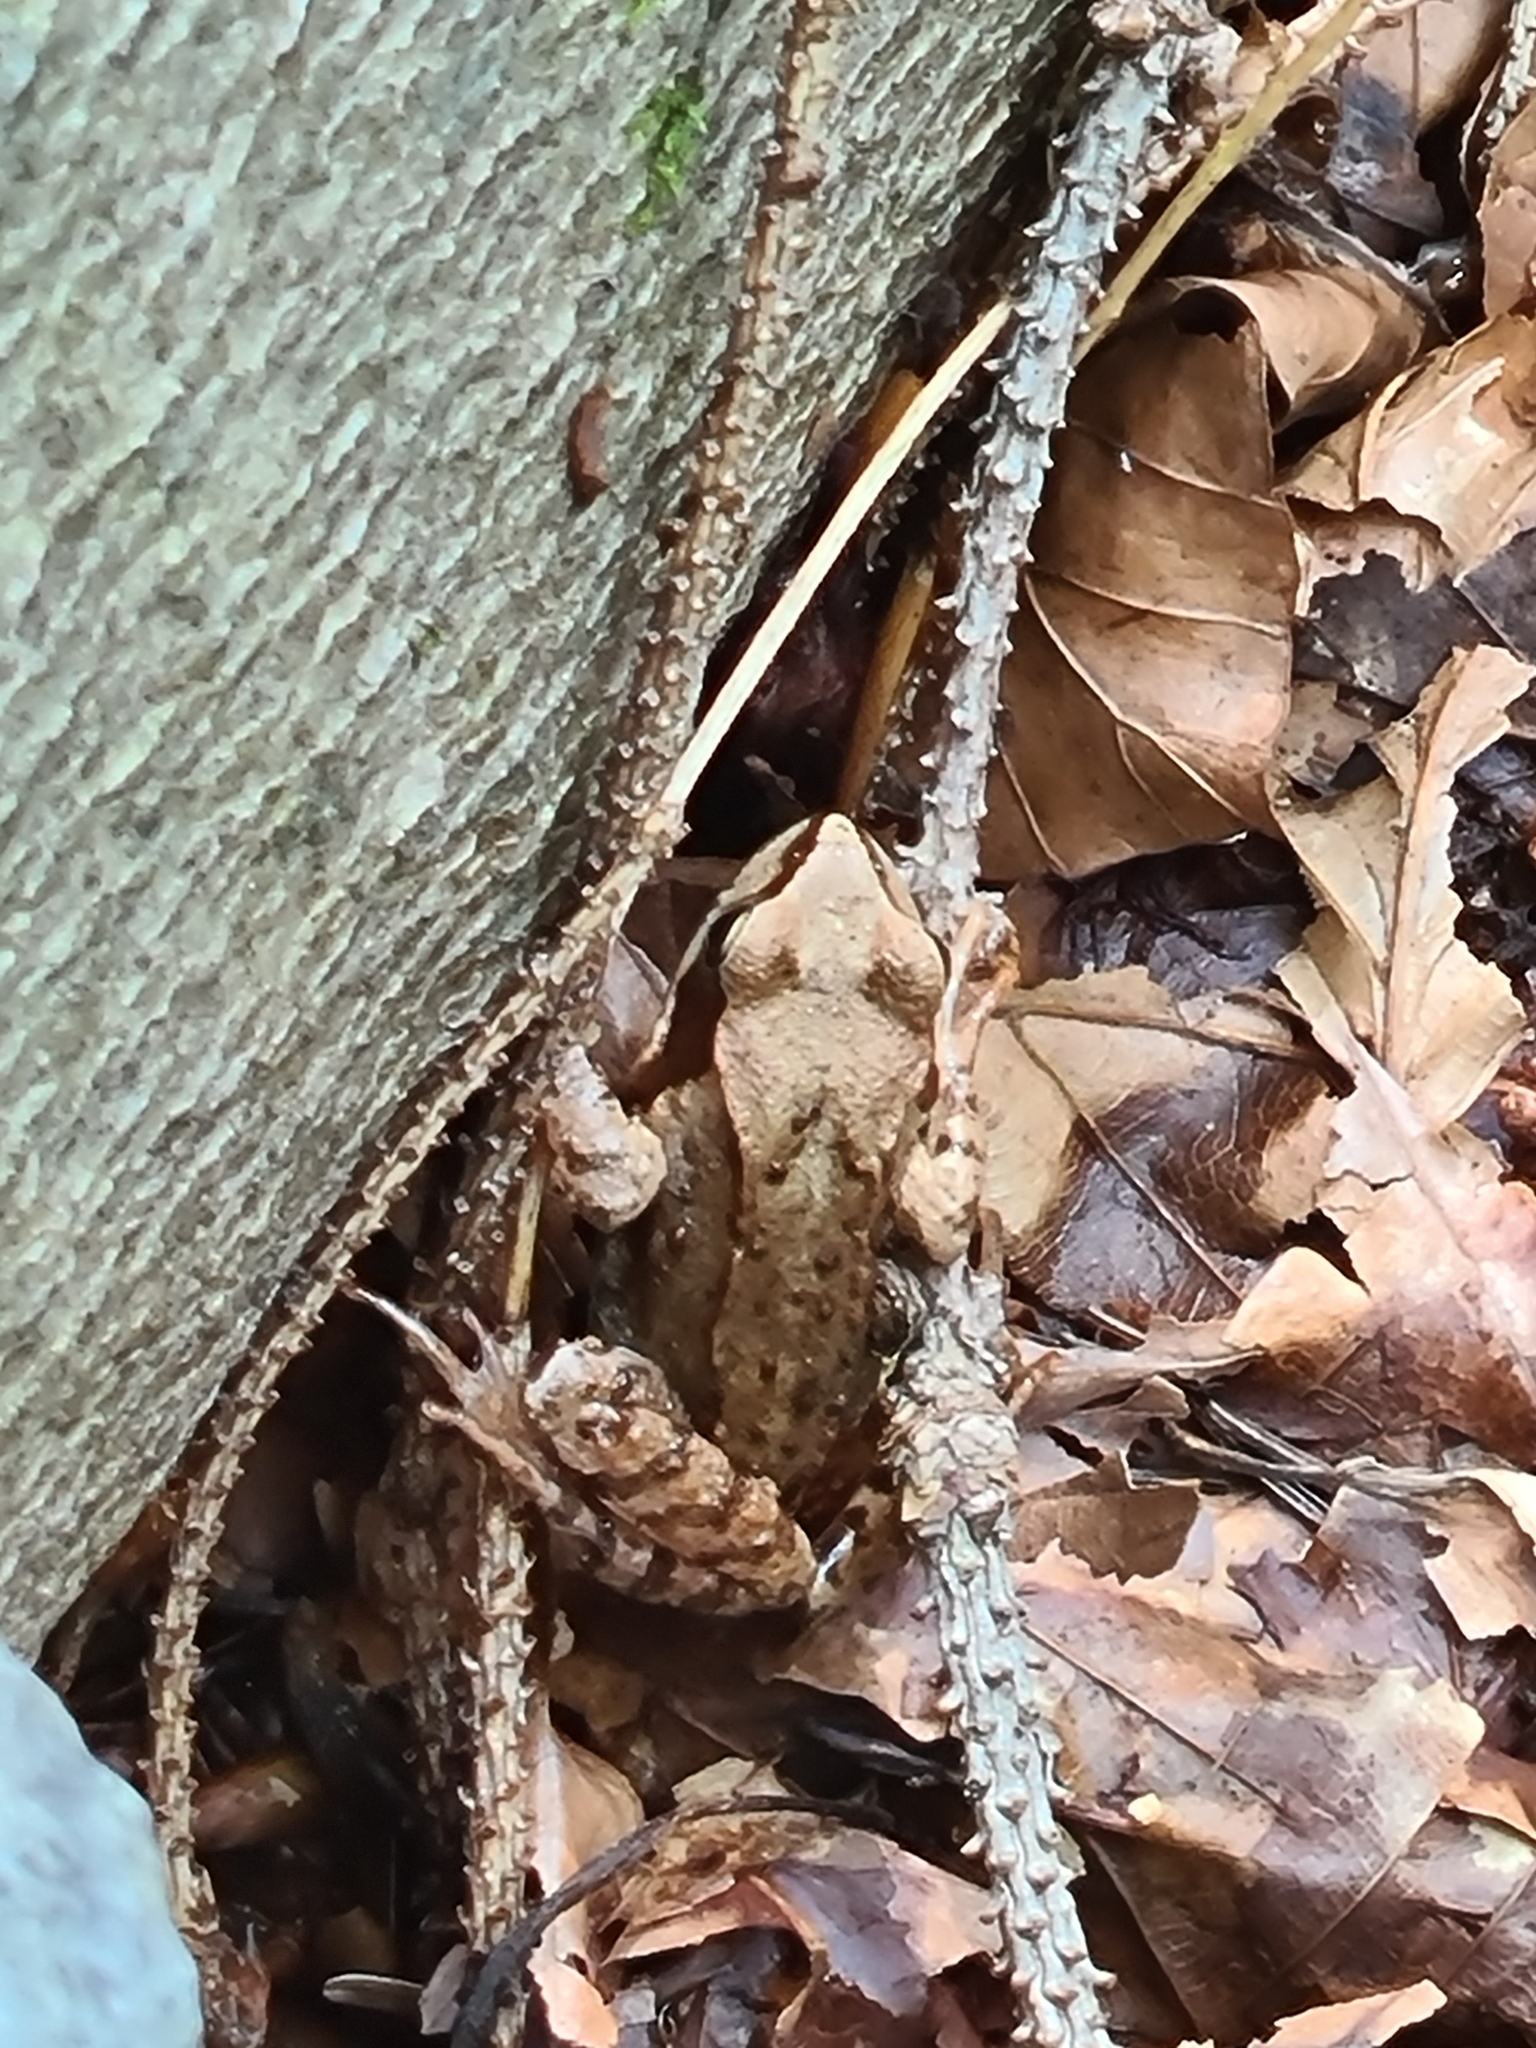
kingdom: Animalia
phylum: Chordata
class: Amphibia
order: Anura
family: Ranidae
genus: Rana
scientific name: Rana temporaria
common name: Common frog
